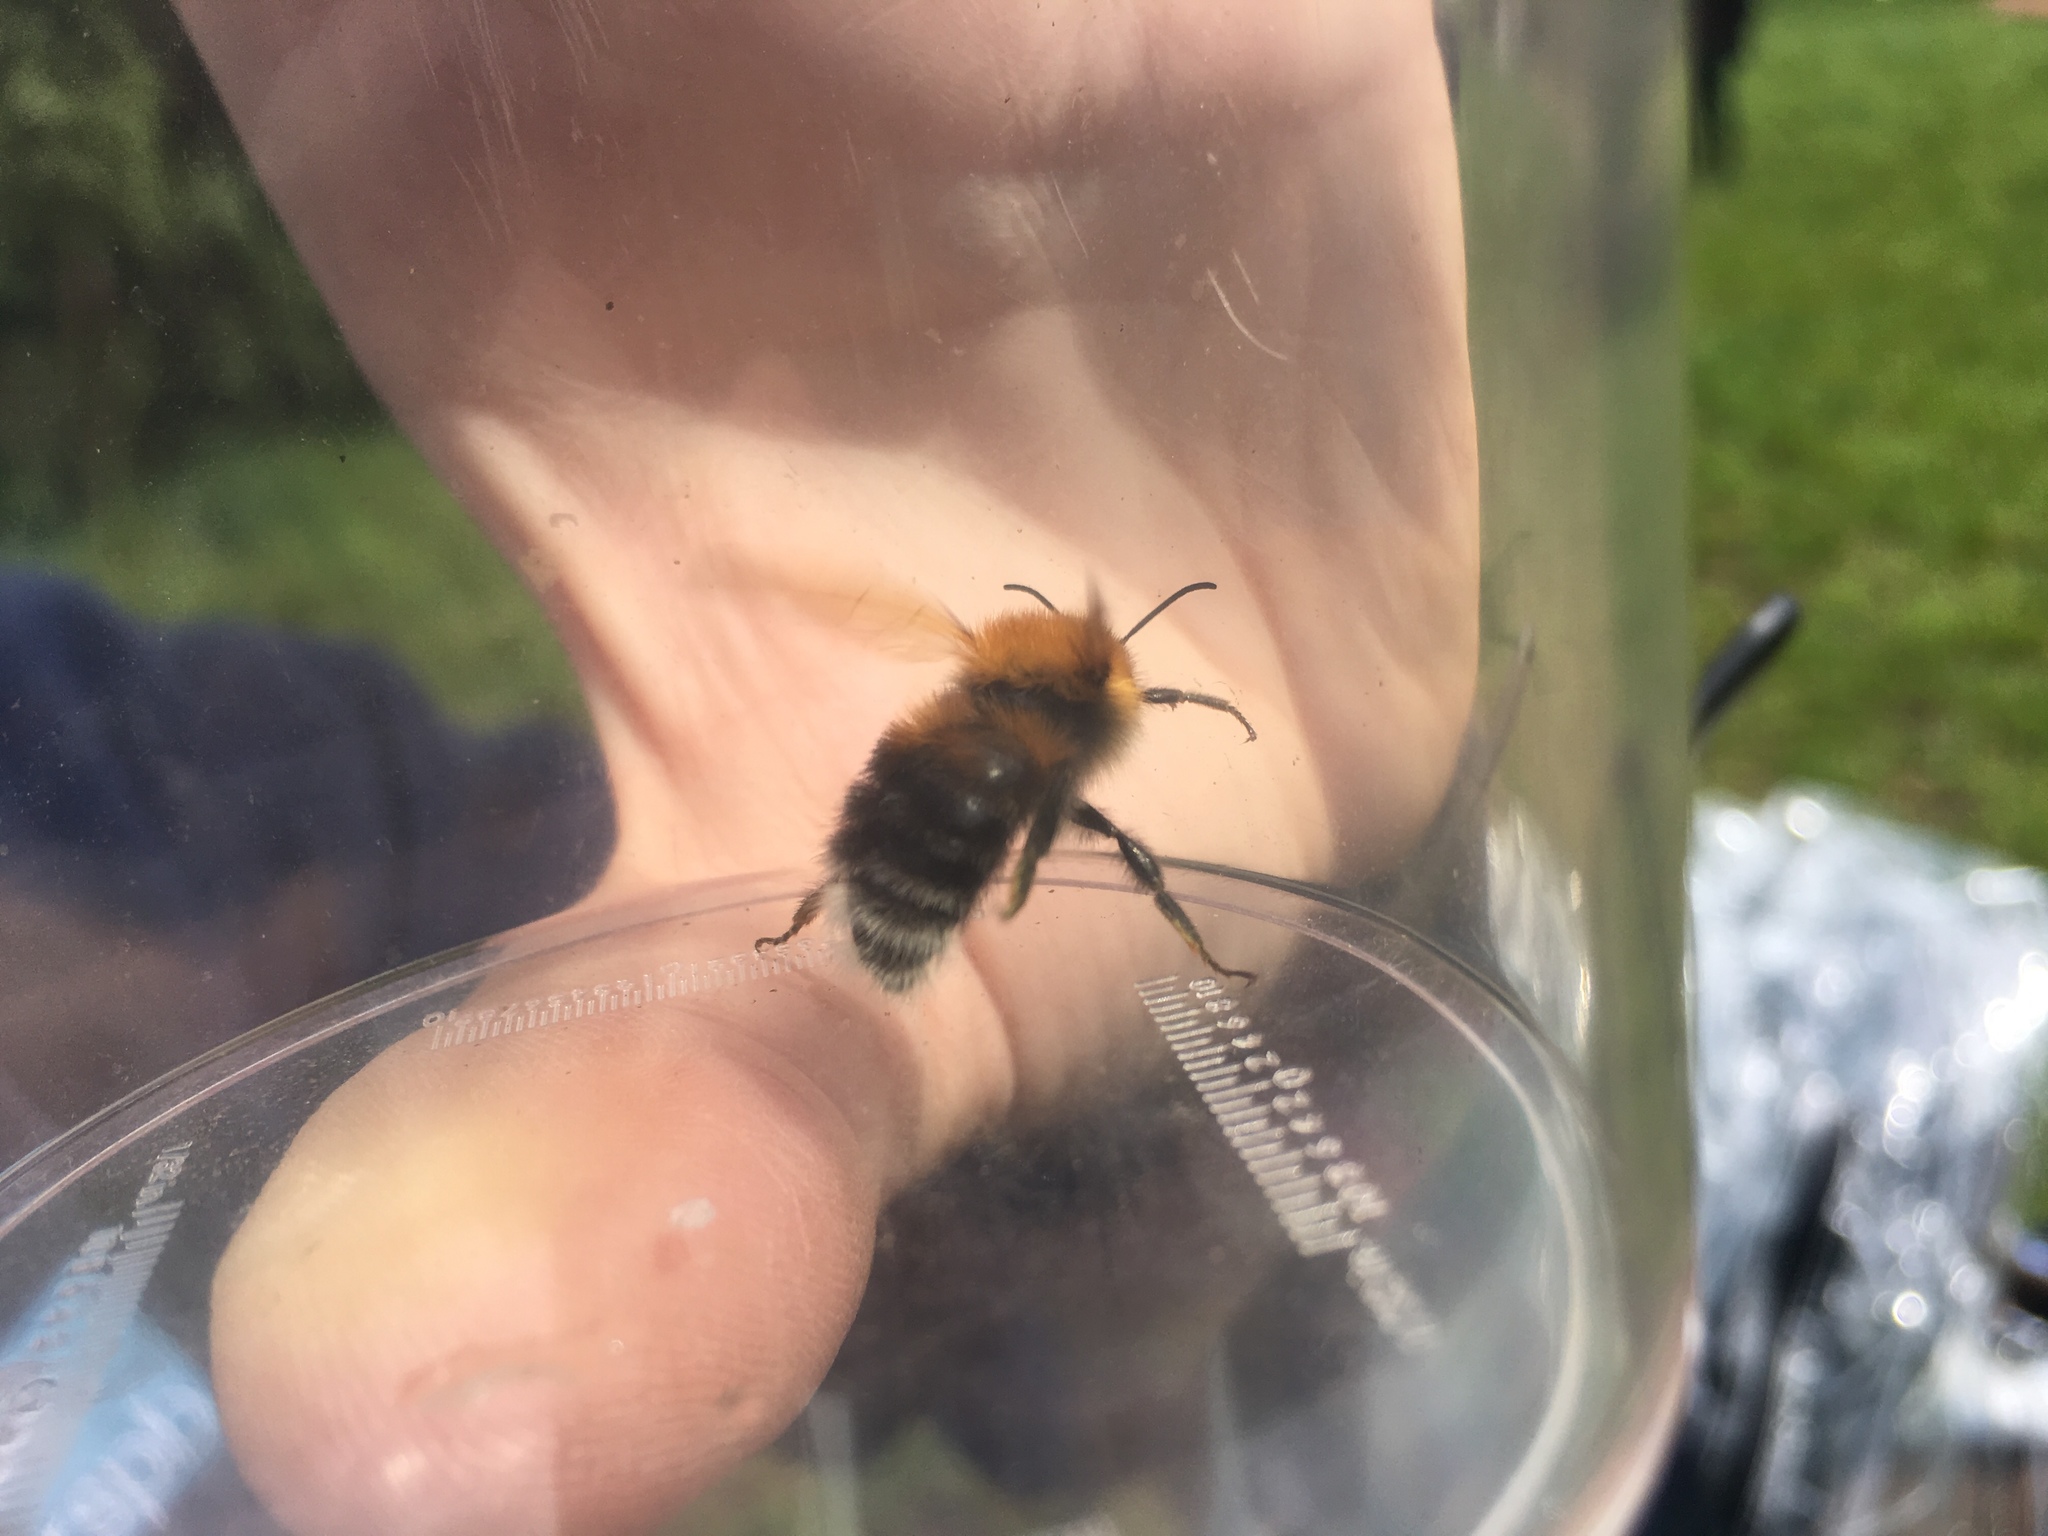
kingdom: Animalia
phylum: Arthropoda
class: Insecta
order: Hymenoptera
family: Apidae
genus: Bombus
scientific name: Bombus hypnorum
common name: New garden bumblebee
